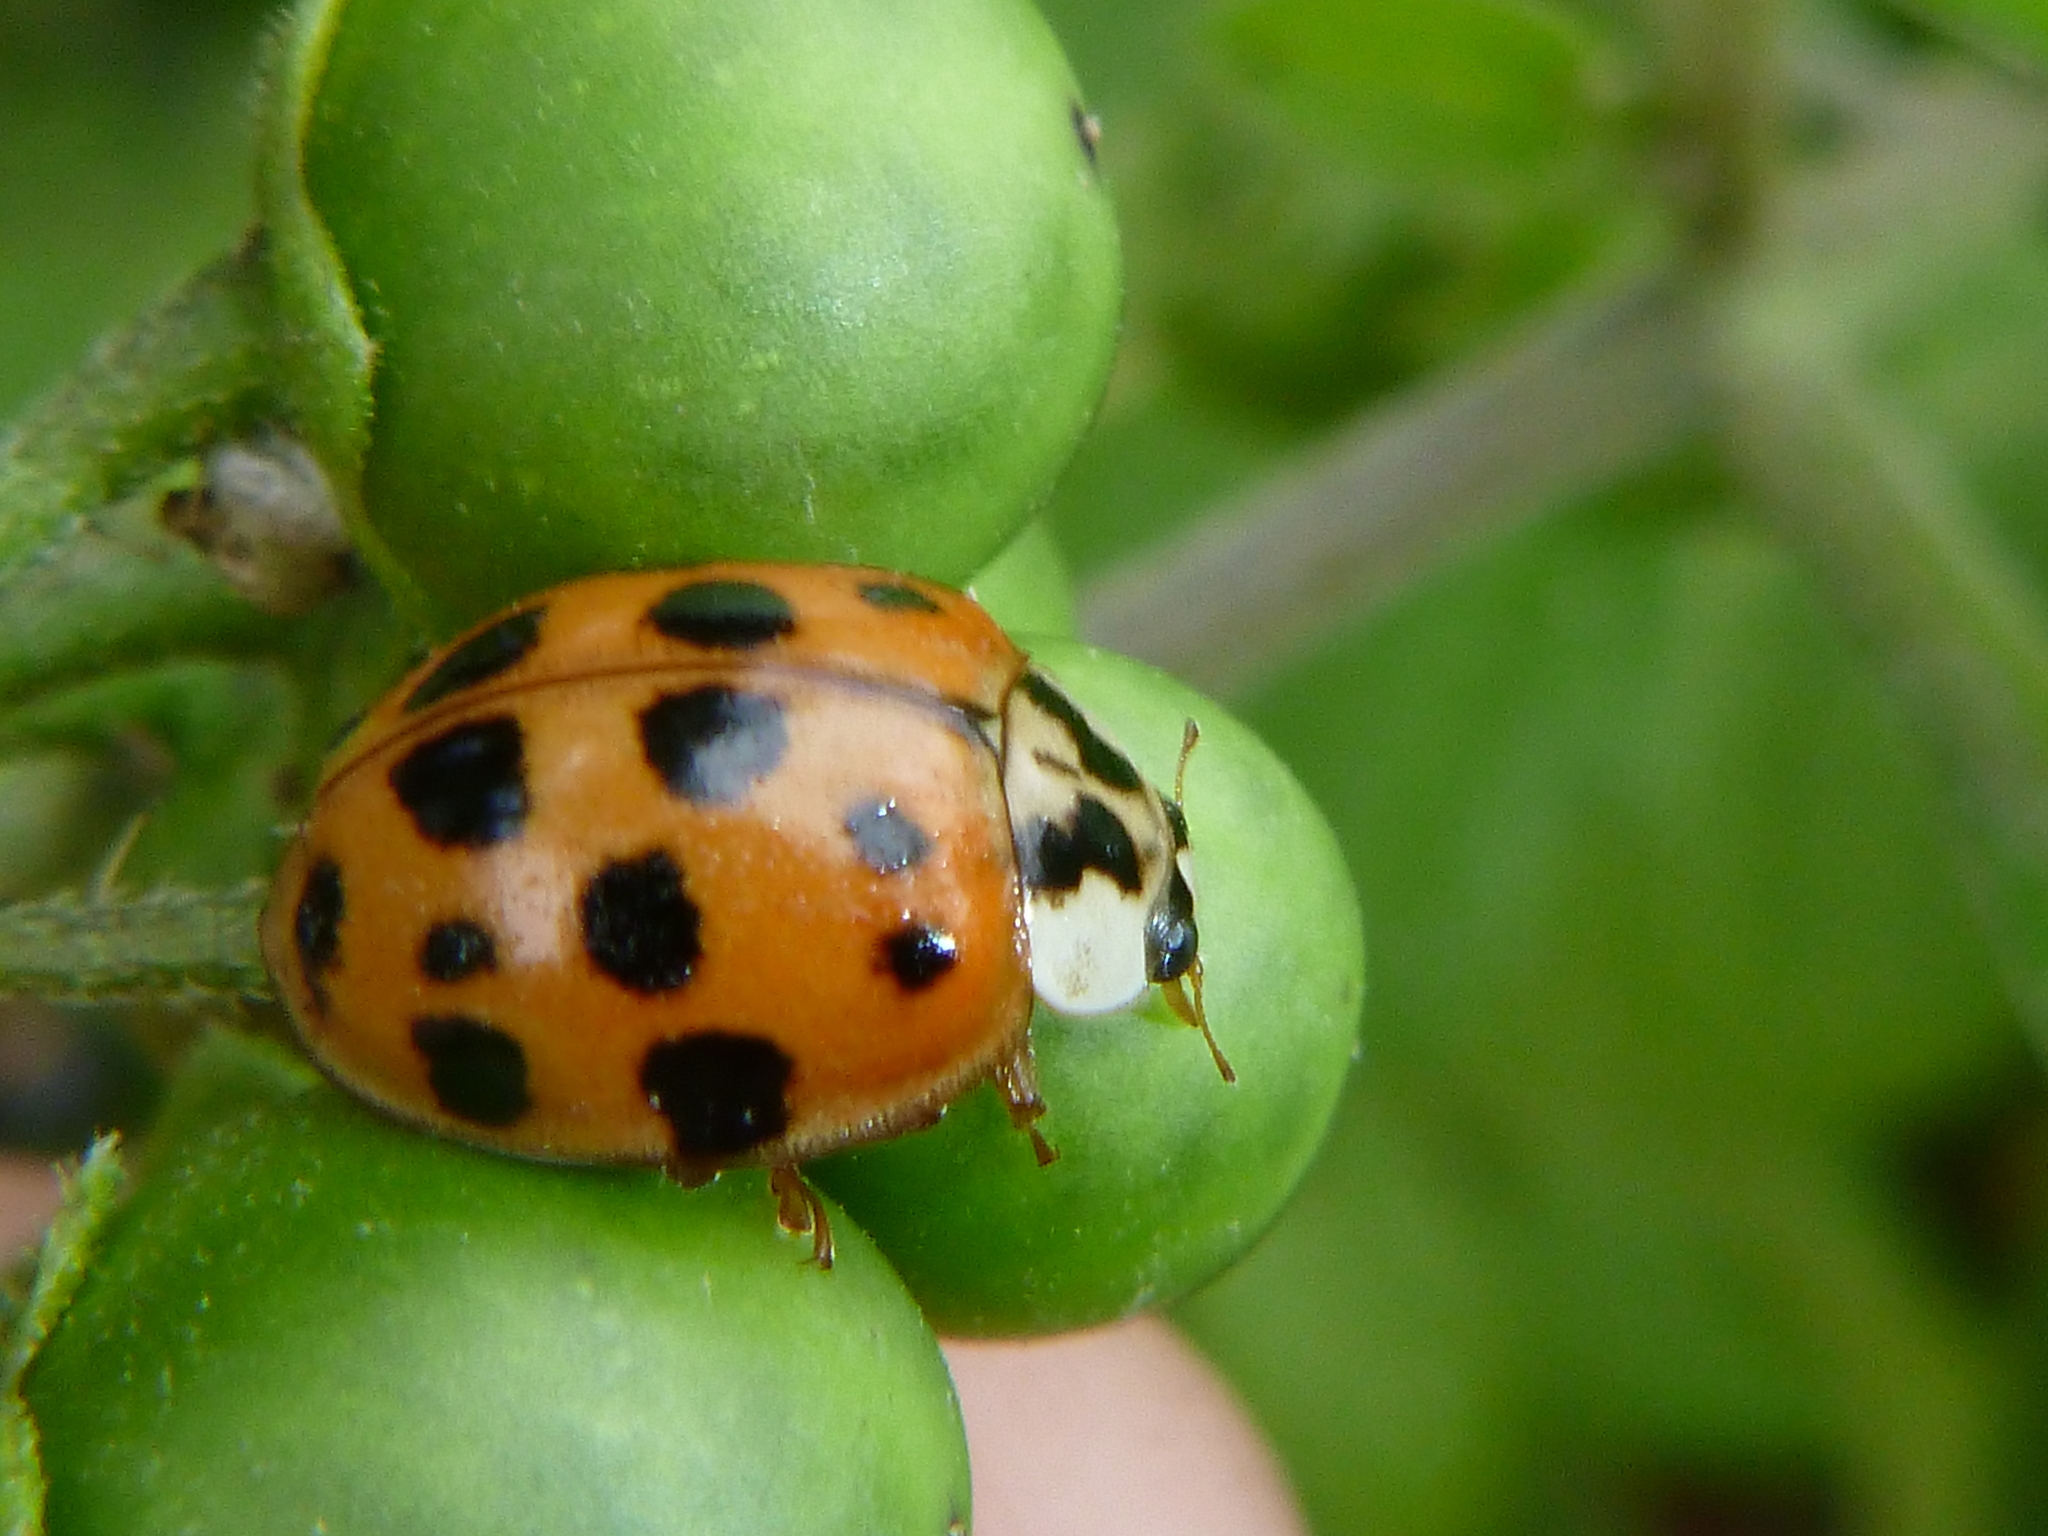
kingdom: Animalia
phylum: Arthropoda
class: Insecta
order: Coleoptera
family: Coccinellidae
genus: Harmonia
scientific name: Harmonia axyridis
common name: Harlequin ladybird
